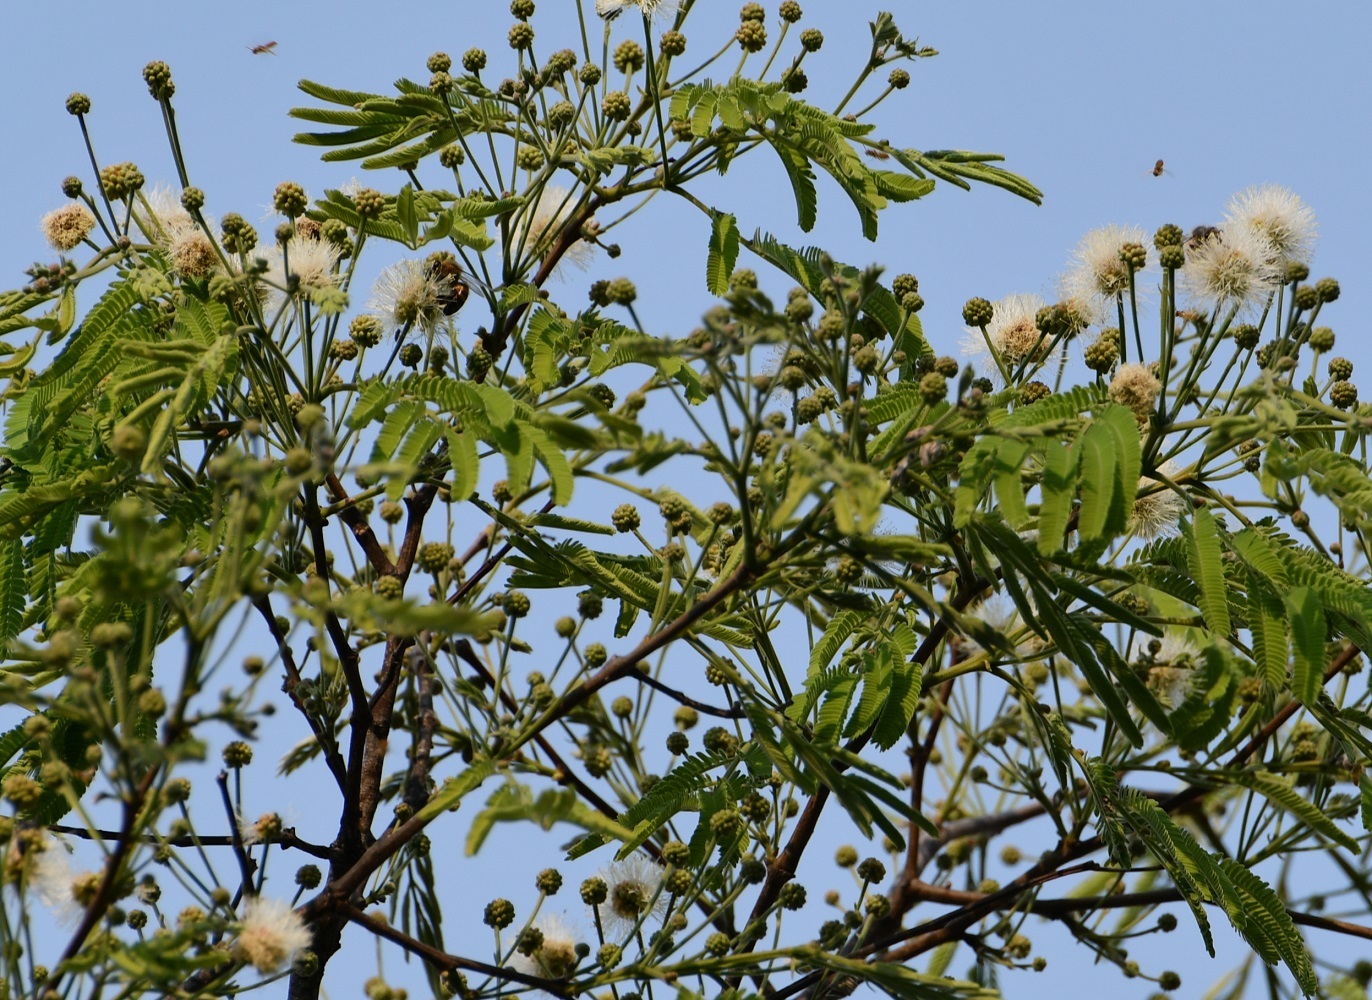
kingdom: Plantae
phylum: Tracheophyta
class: Magnoliopsida
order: Fabales
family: Fabaceae
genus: Leucaena
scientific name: Leucaena diversifolia
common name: Red leucaena
